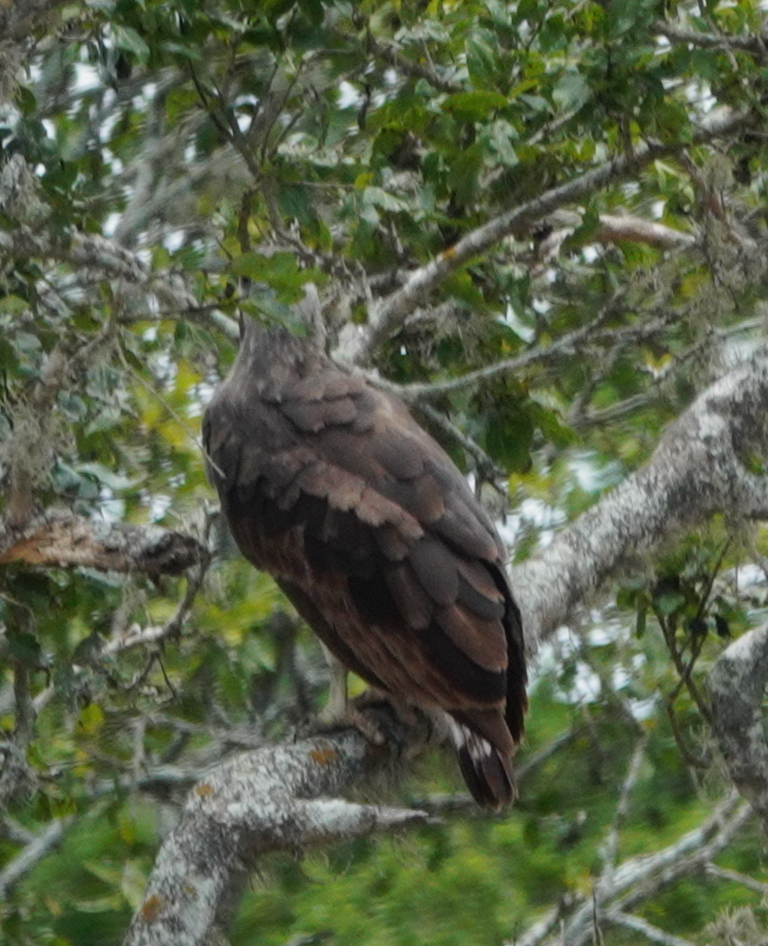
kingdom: Animalia
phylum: Chordata
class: Aves
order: Accipitriformes
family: Accipitridae
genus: Icthyophaga
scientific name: Icthyophaga ichthyaetus
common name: Grey-headed fish eagle
